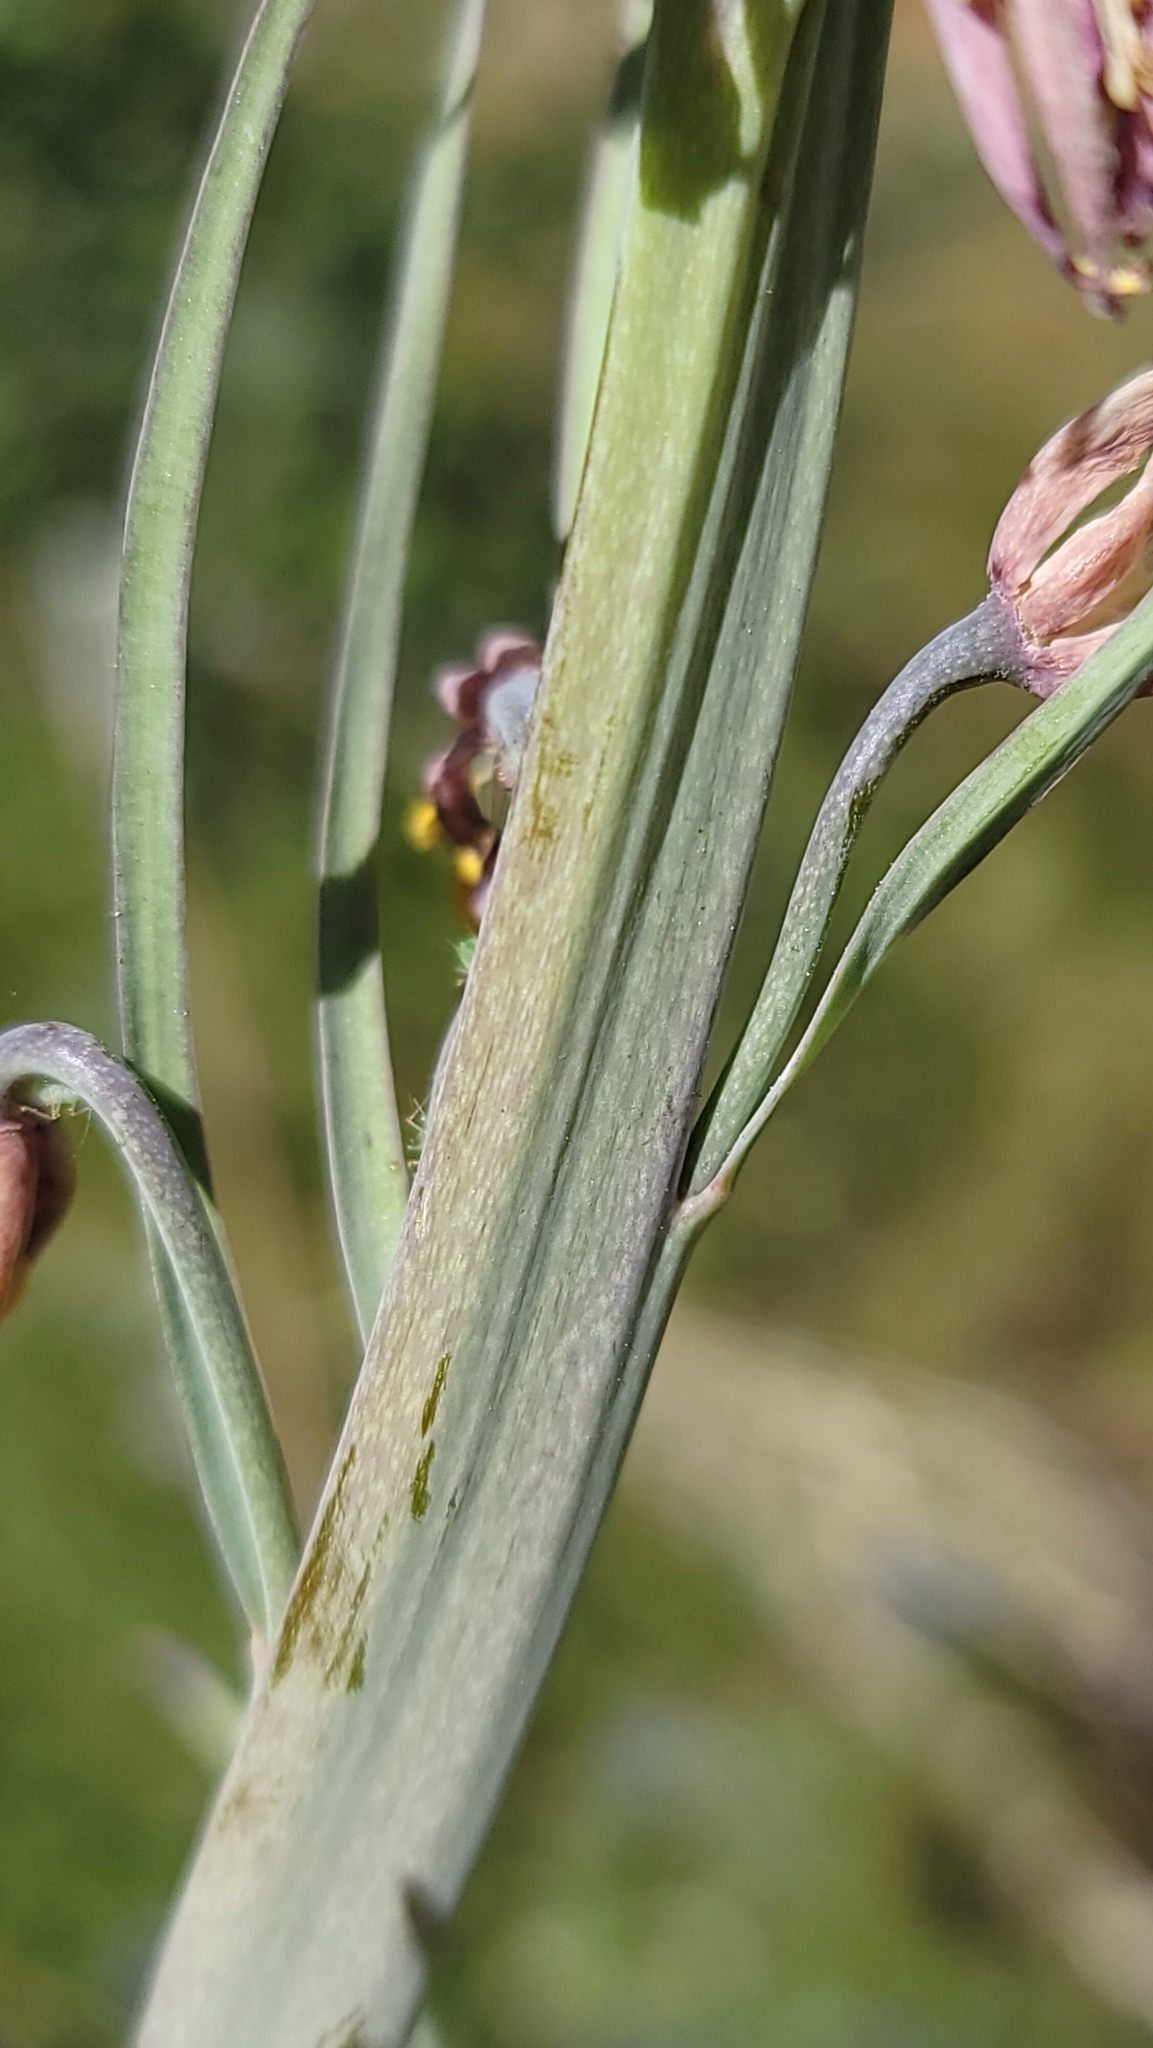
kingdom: Plantae
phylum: Tracheophyta
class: Liliopsida
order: Liliales
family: Liliaceae
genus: Fritillaria
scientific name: Fritillaria micrantha
